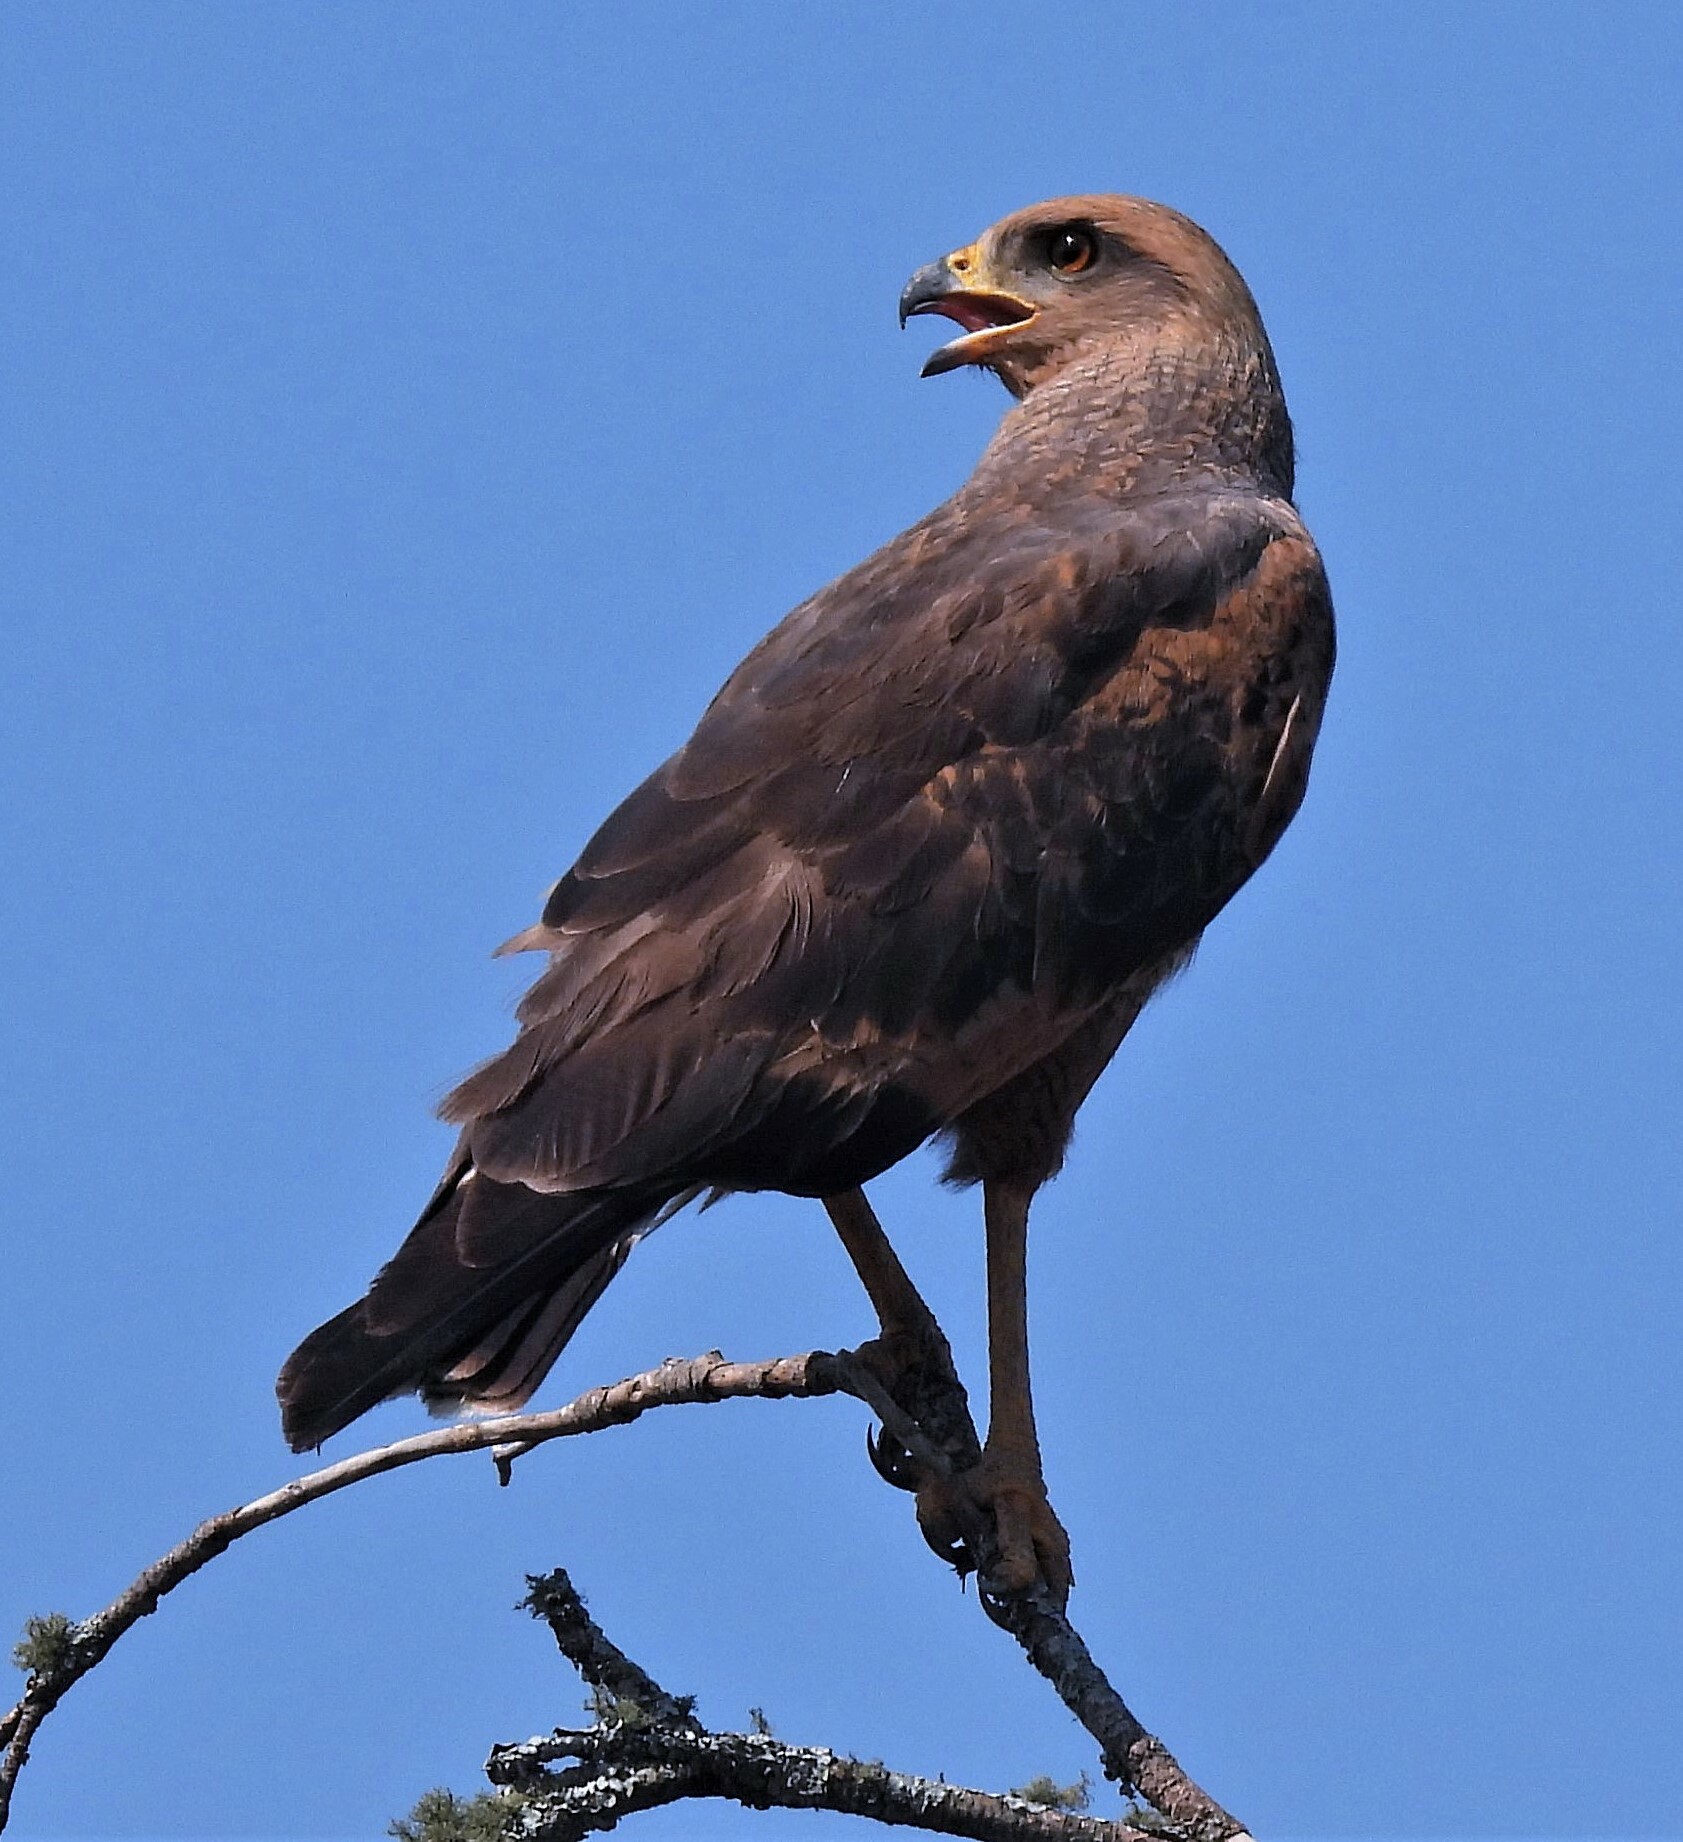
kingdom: Animalia
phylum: Chordata
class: Aves
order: Accipitriformes
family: Accipitridae
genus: Buteogallus
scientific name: Buteogallus meridionalis
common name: Savanna hawk
